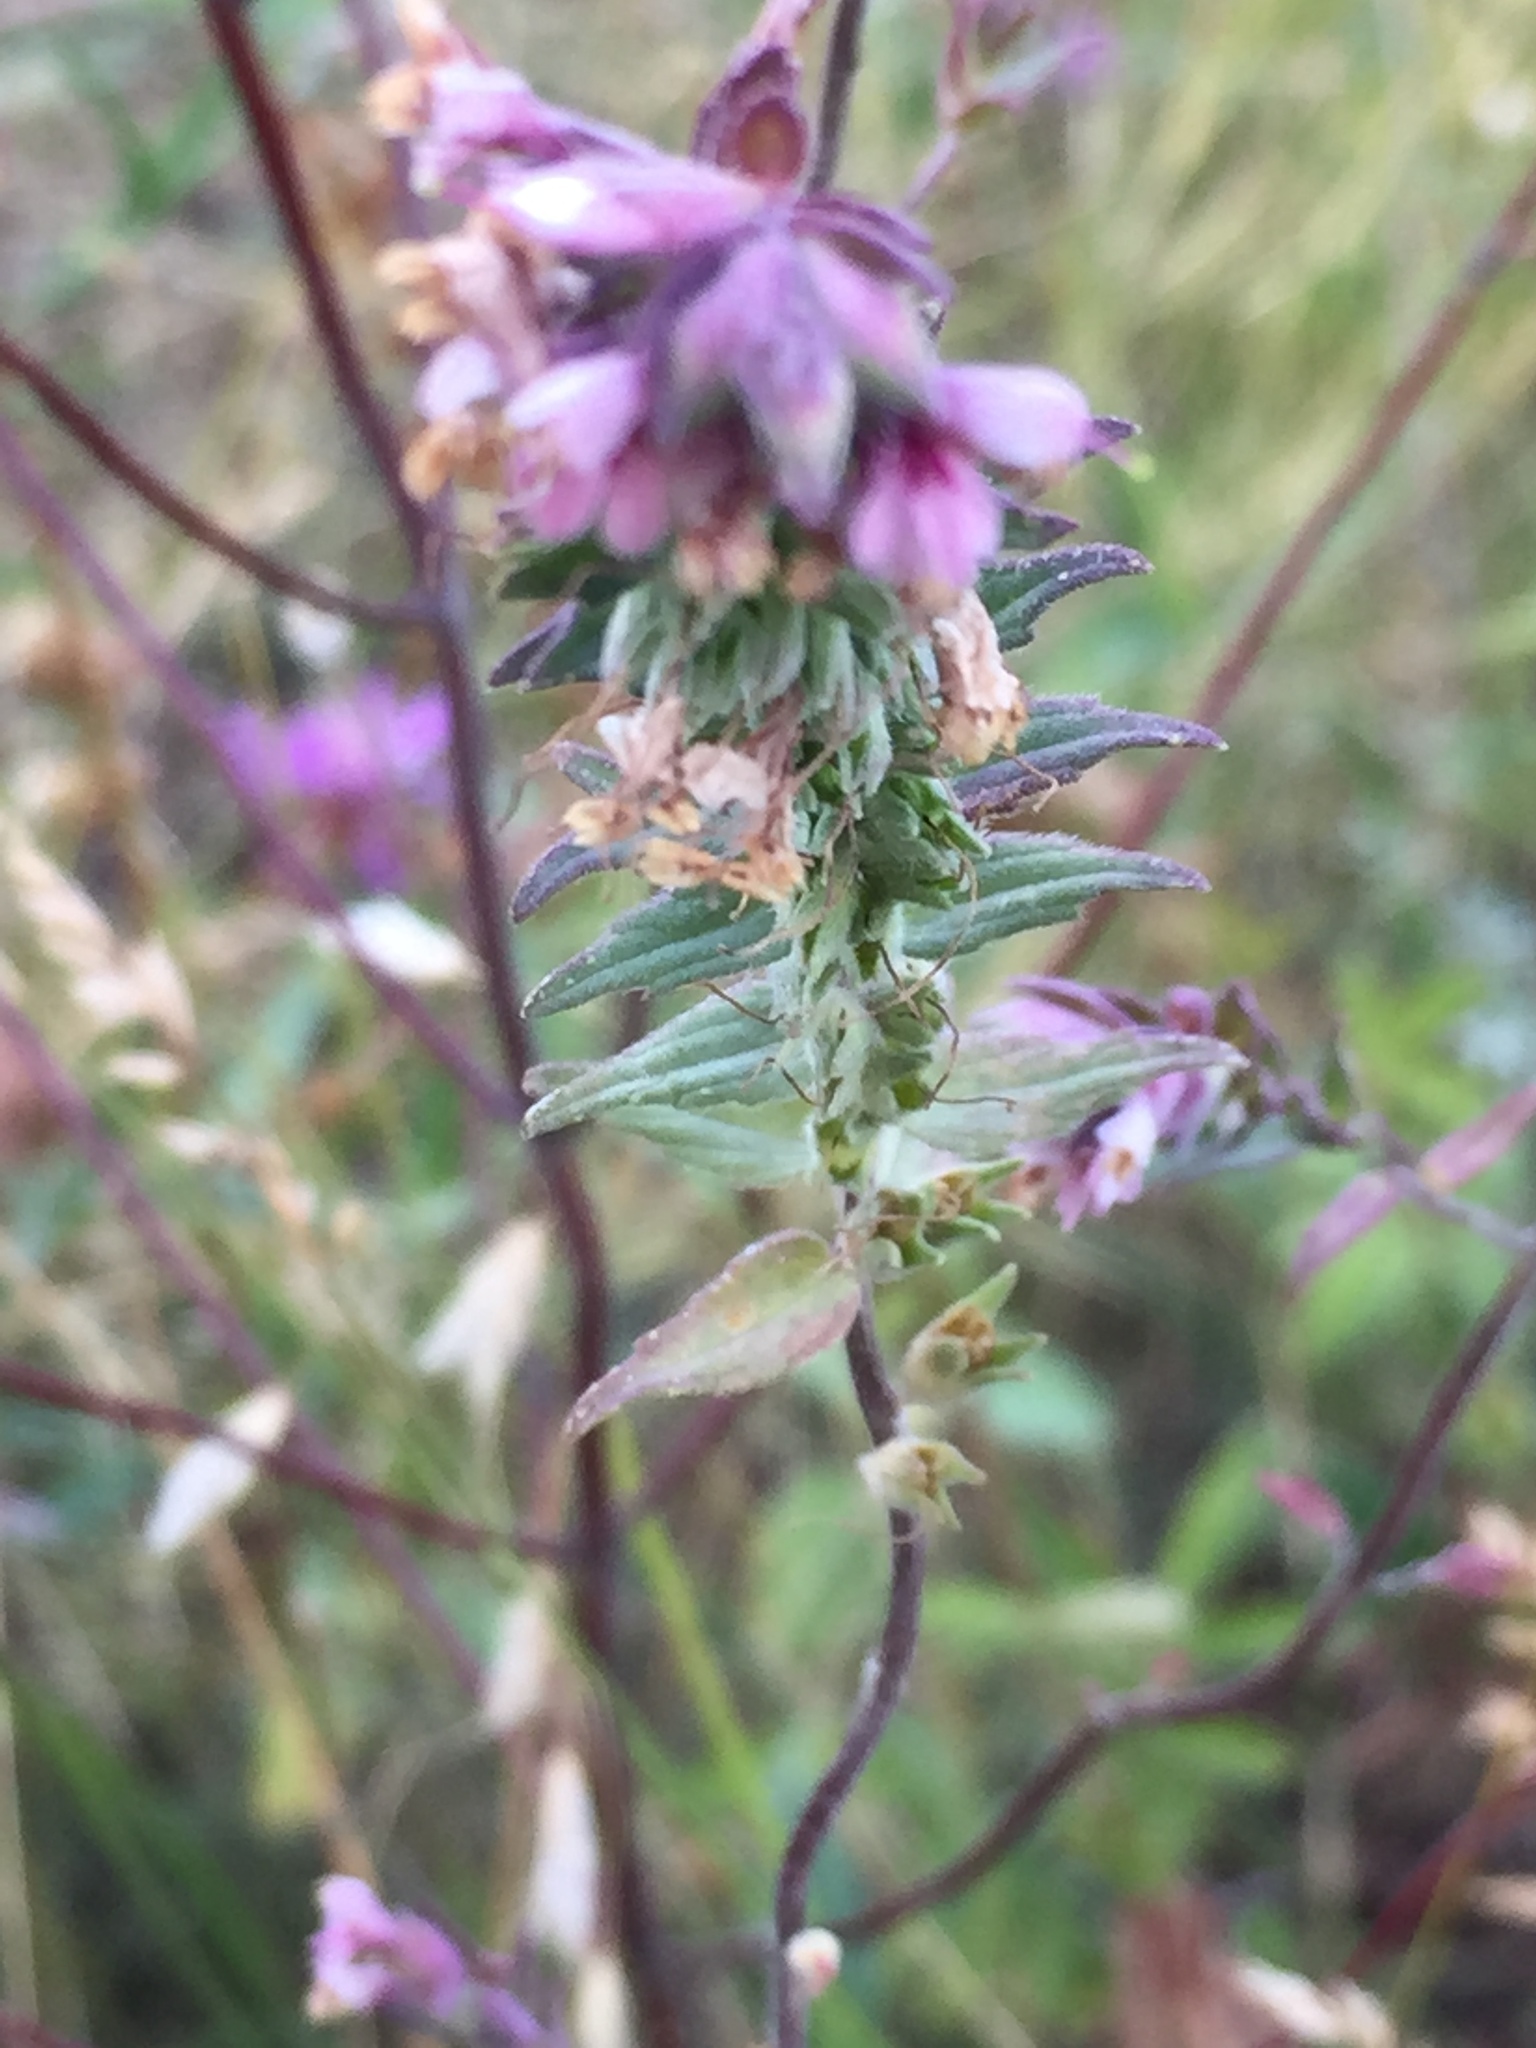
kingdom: Plantae
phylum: Tracheophyta
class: Magnoliopsida
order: Lamiales
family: Orobanchaceae
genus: Odontites
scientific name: Odontites vulgaris
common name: Broomrape
